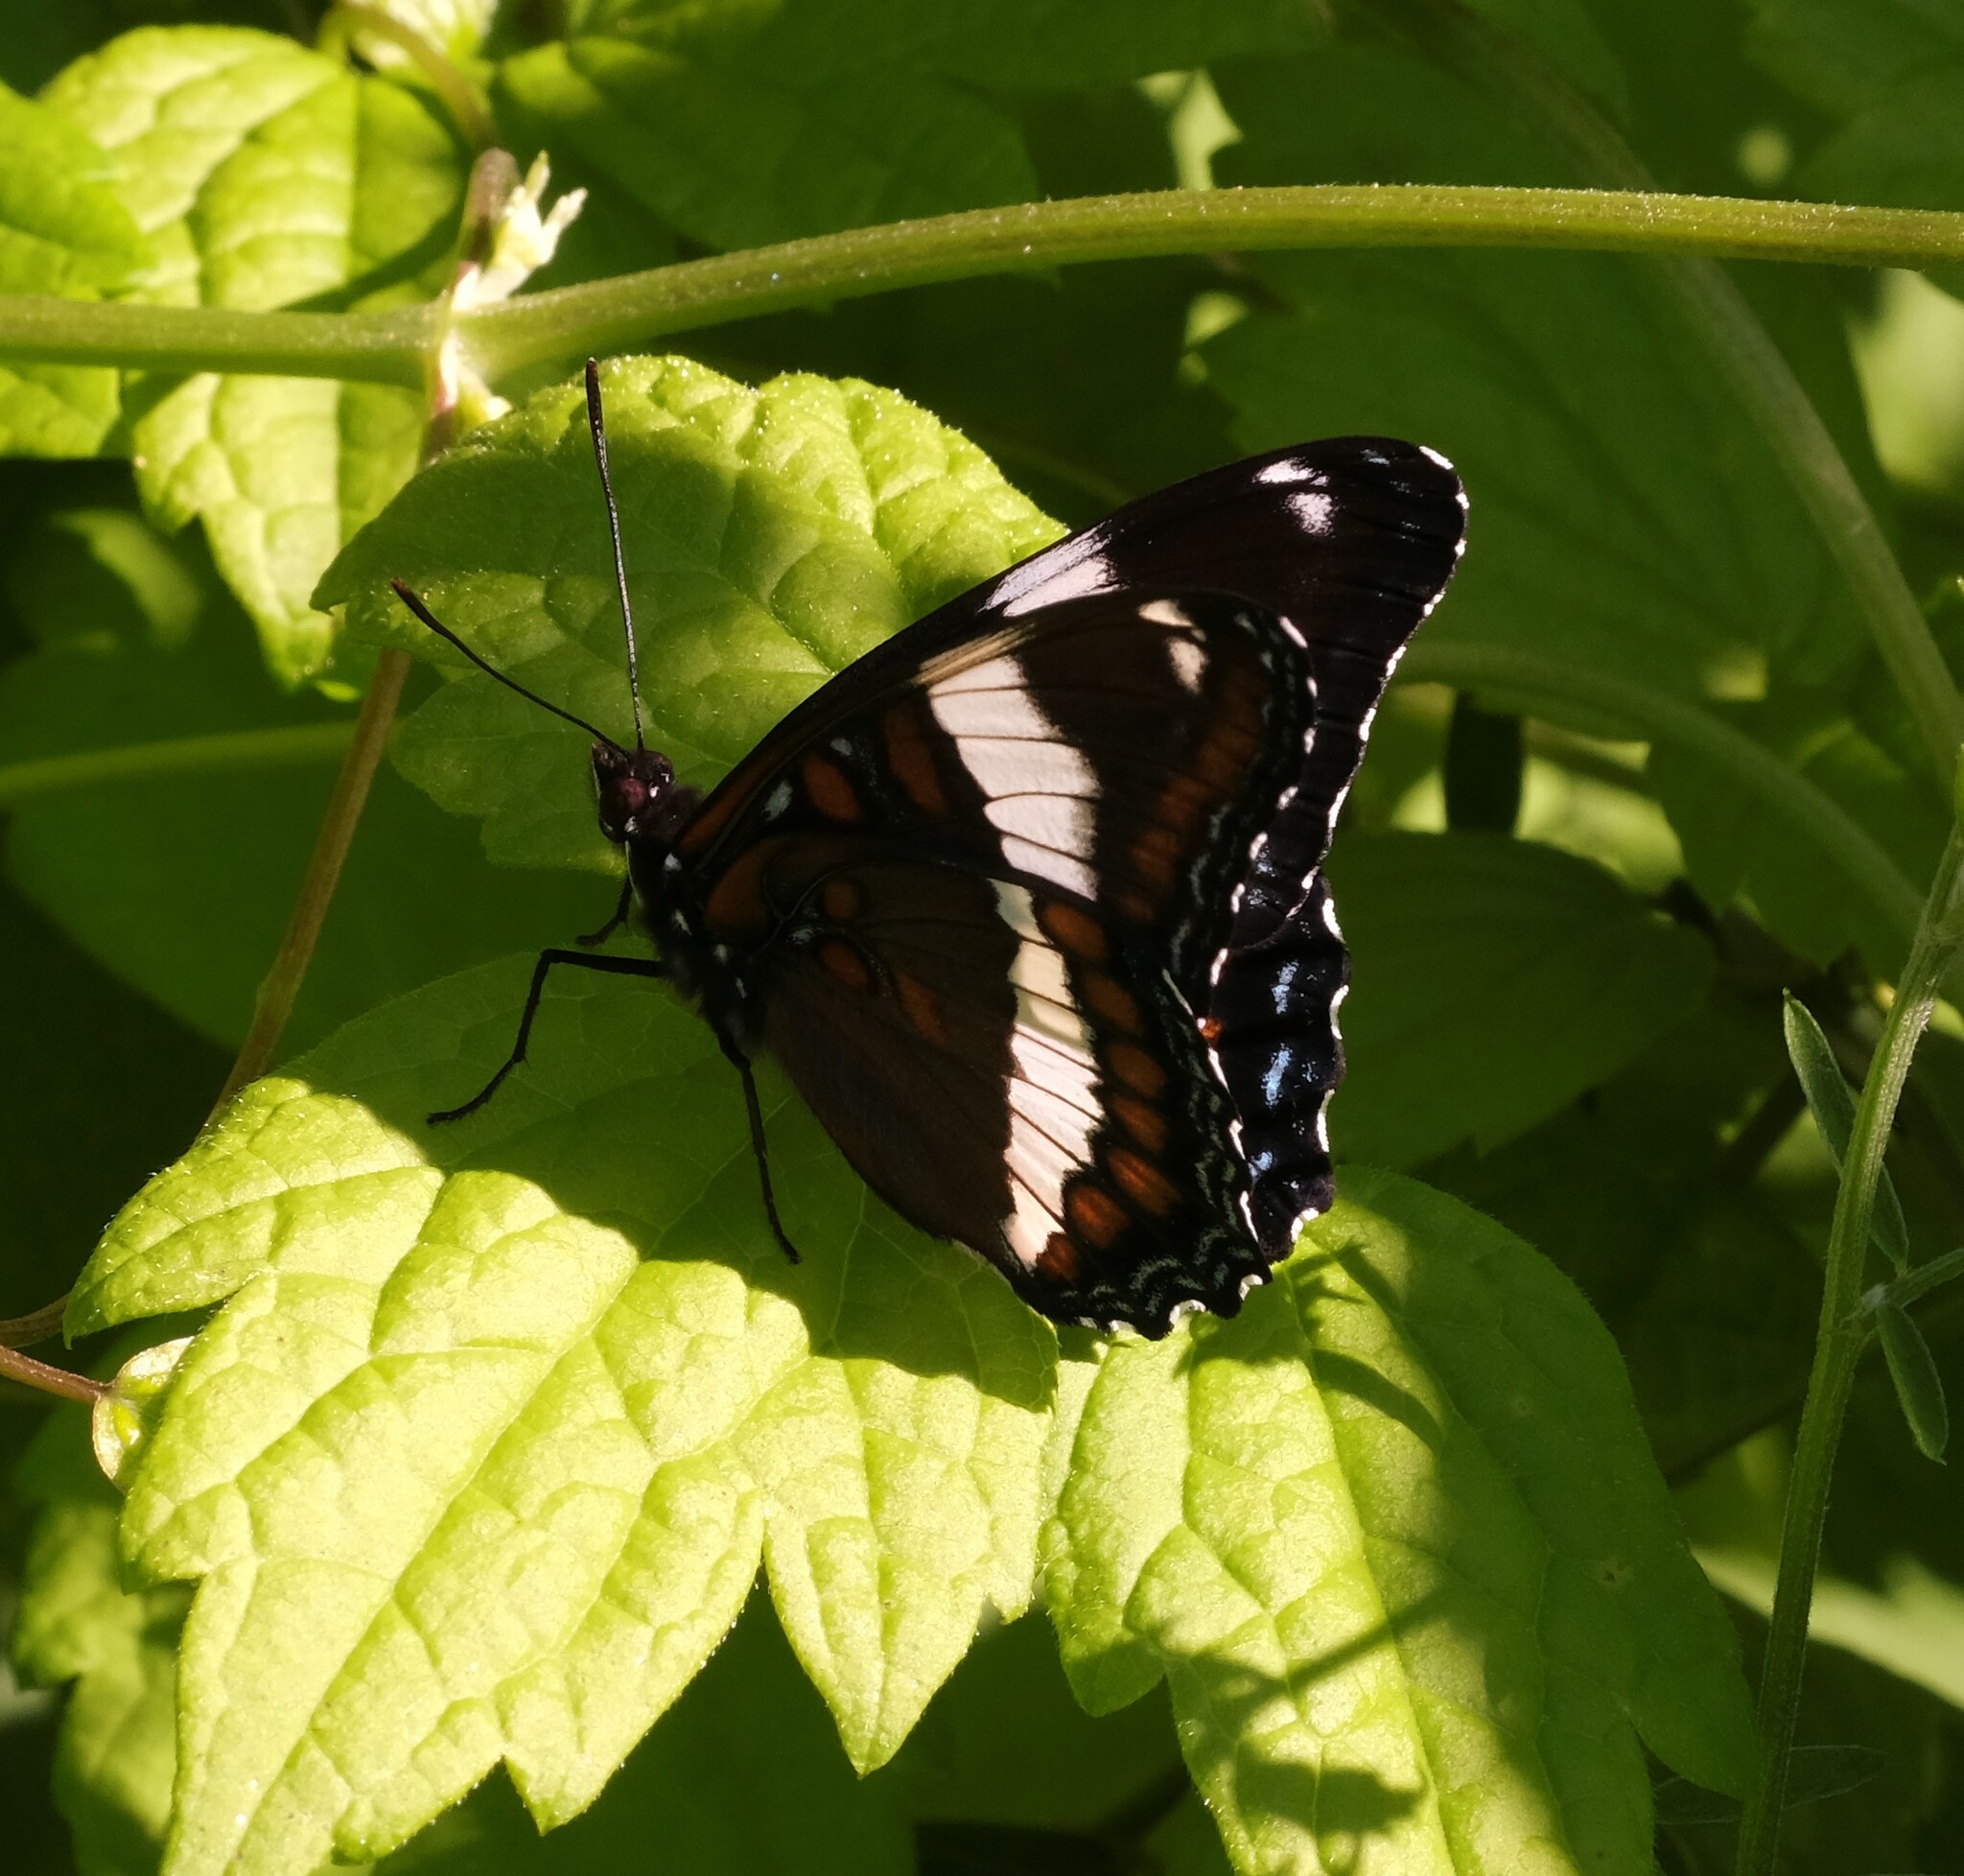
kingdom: Animalia
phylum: Arthropoda
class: Insecta
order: Lepidoptera
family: Nymphalidae
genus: Limenitis
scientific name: Limenitis arthemis
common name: Red-spotted admiral
